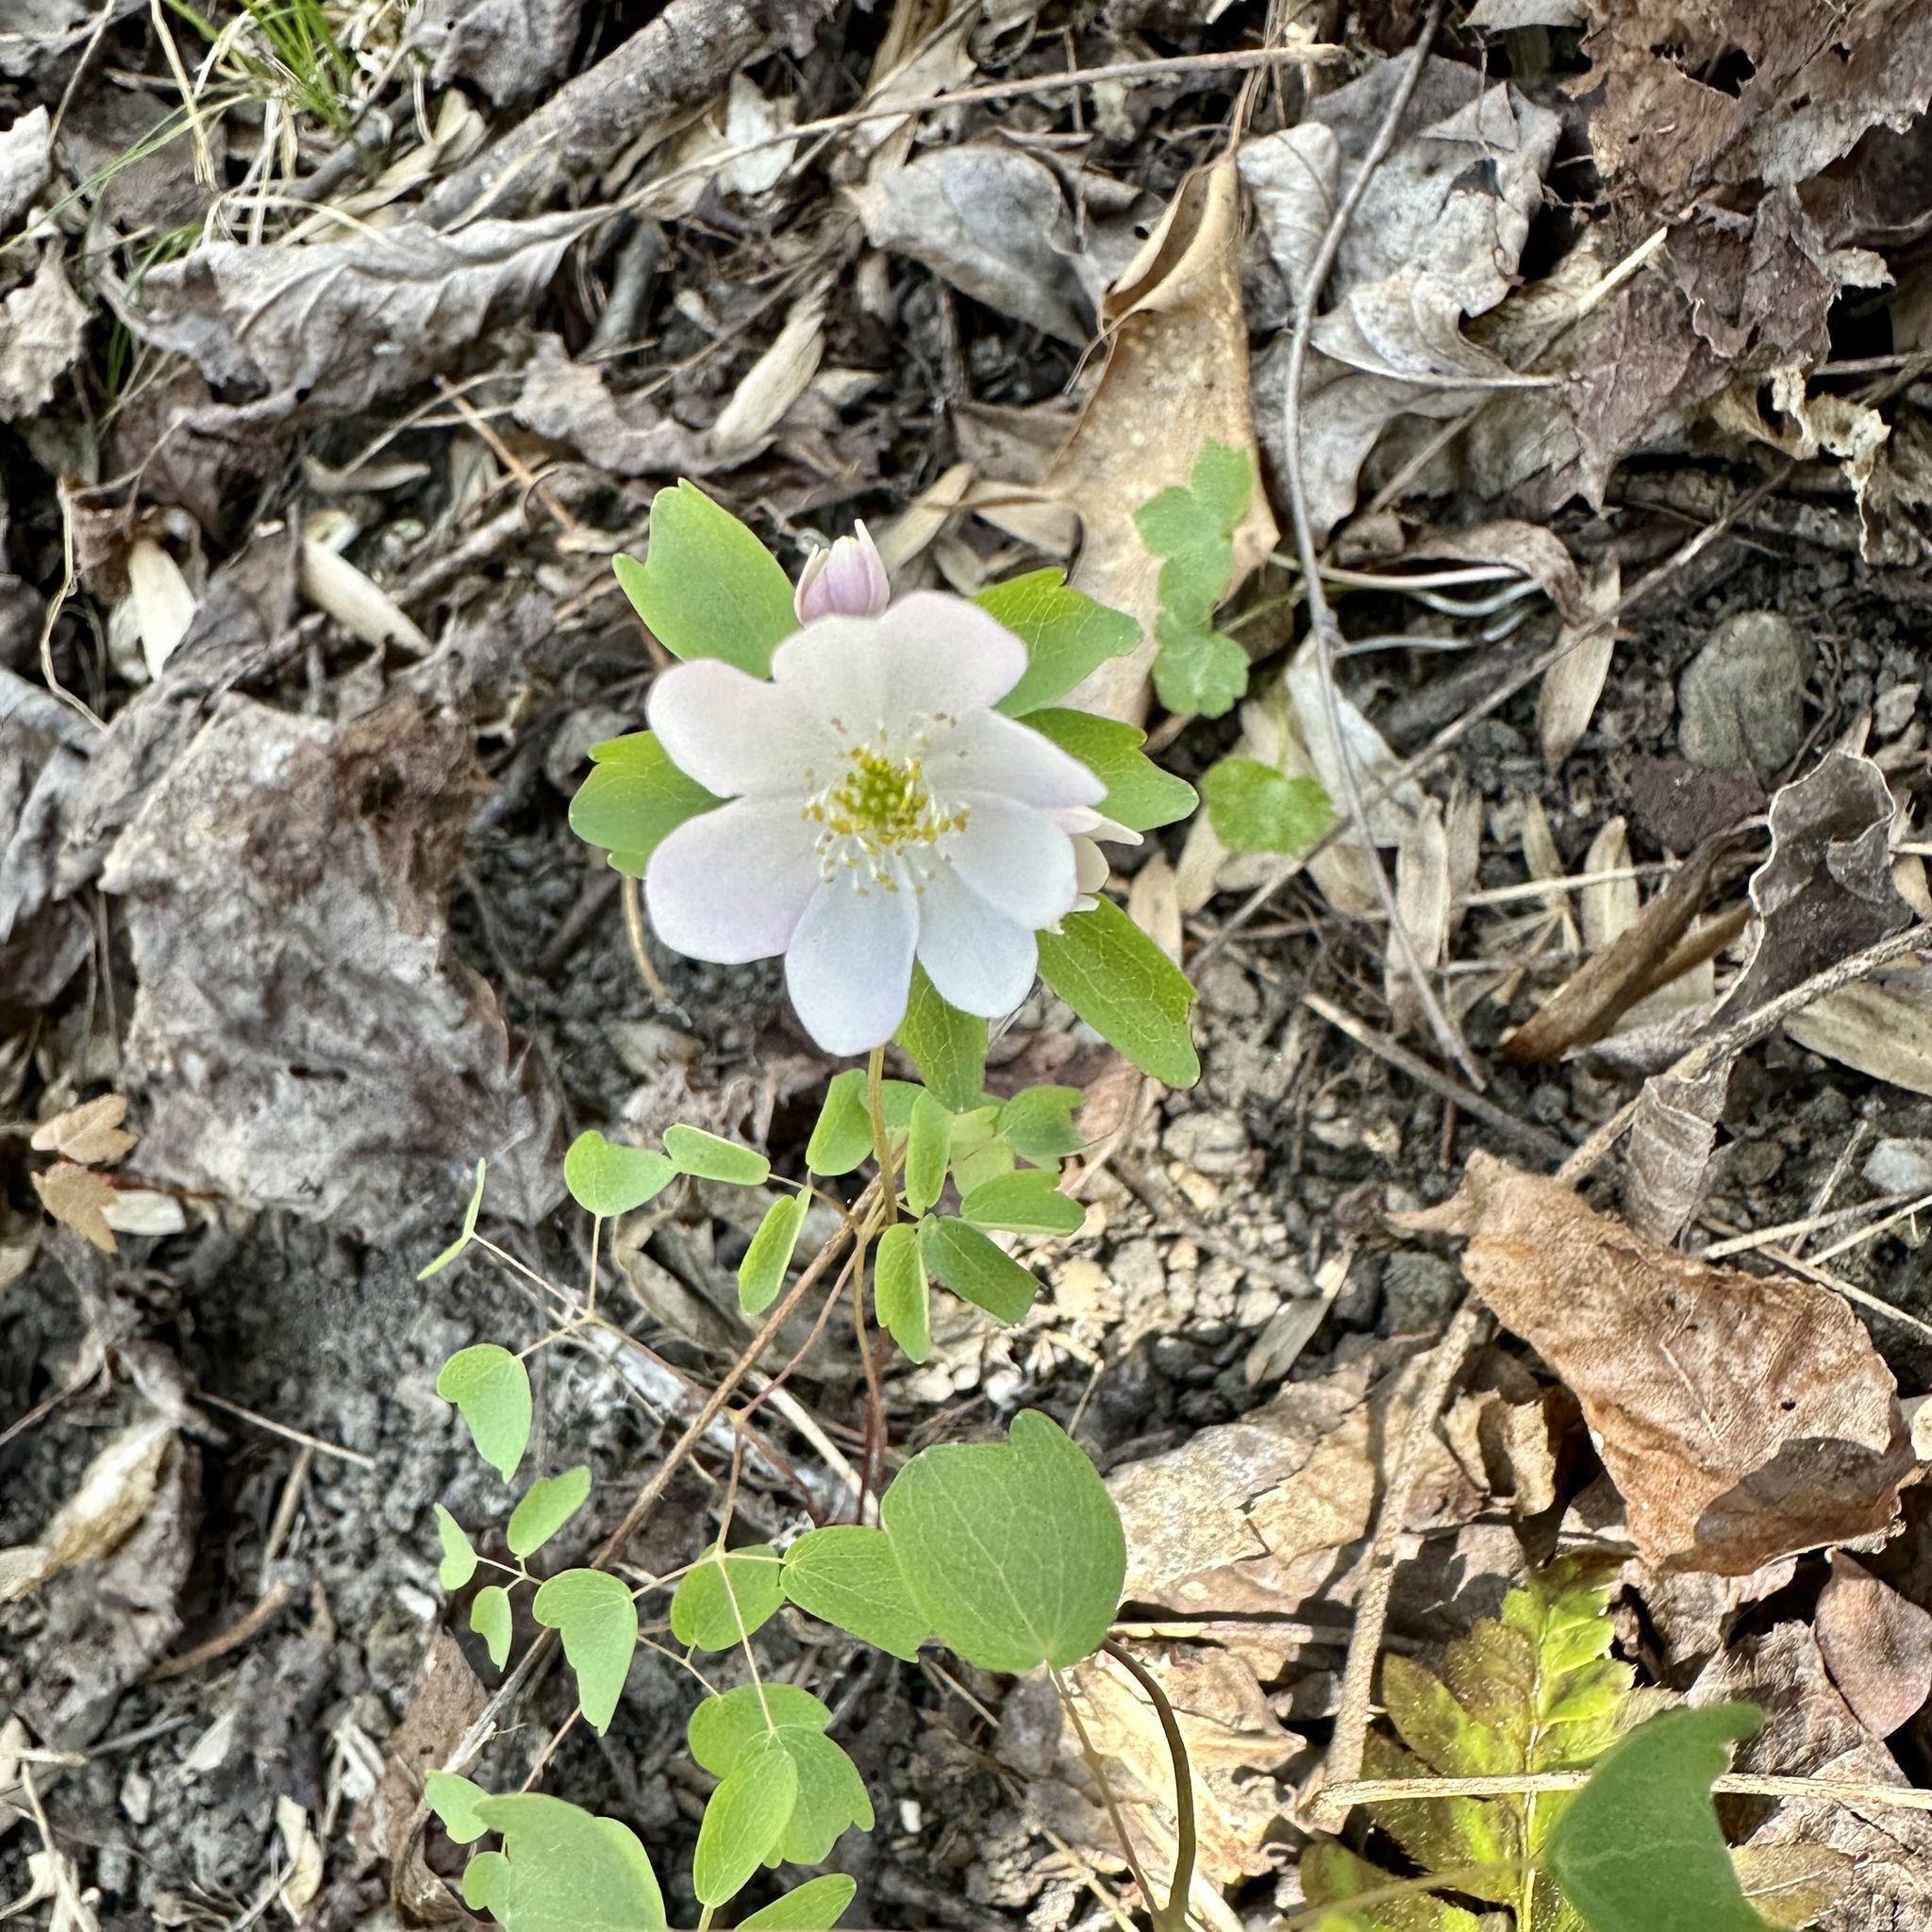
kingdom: Plantae
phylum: Tracheophyta
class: Magnoliopsida
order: Ranunculales
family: Ranunculaceae
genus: Thalictrum
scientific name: Thalictrum thalictroides
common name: Rue-anemone
